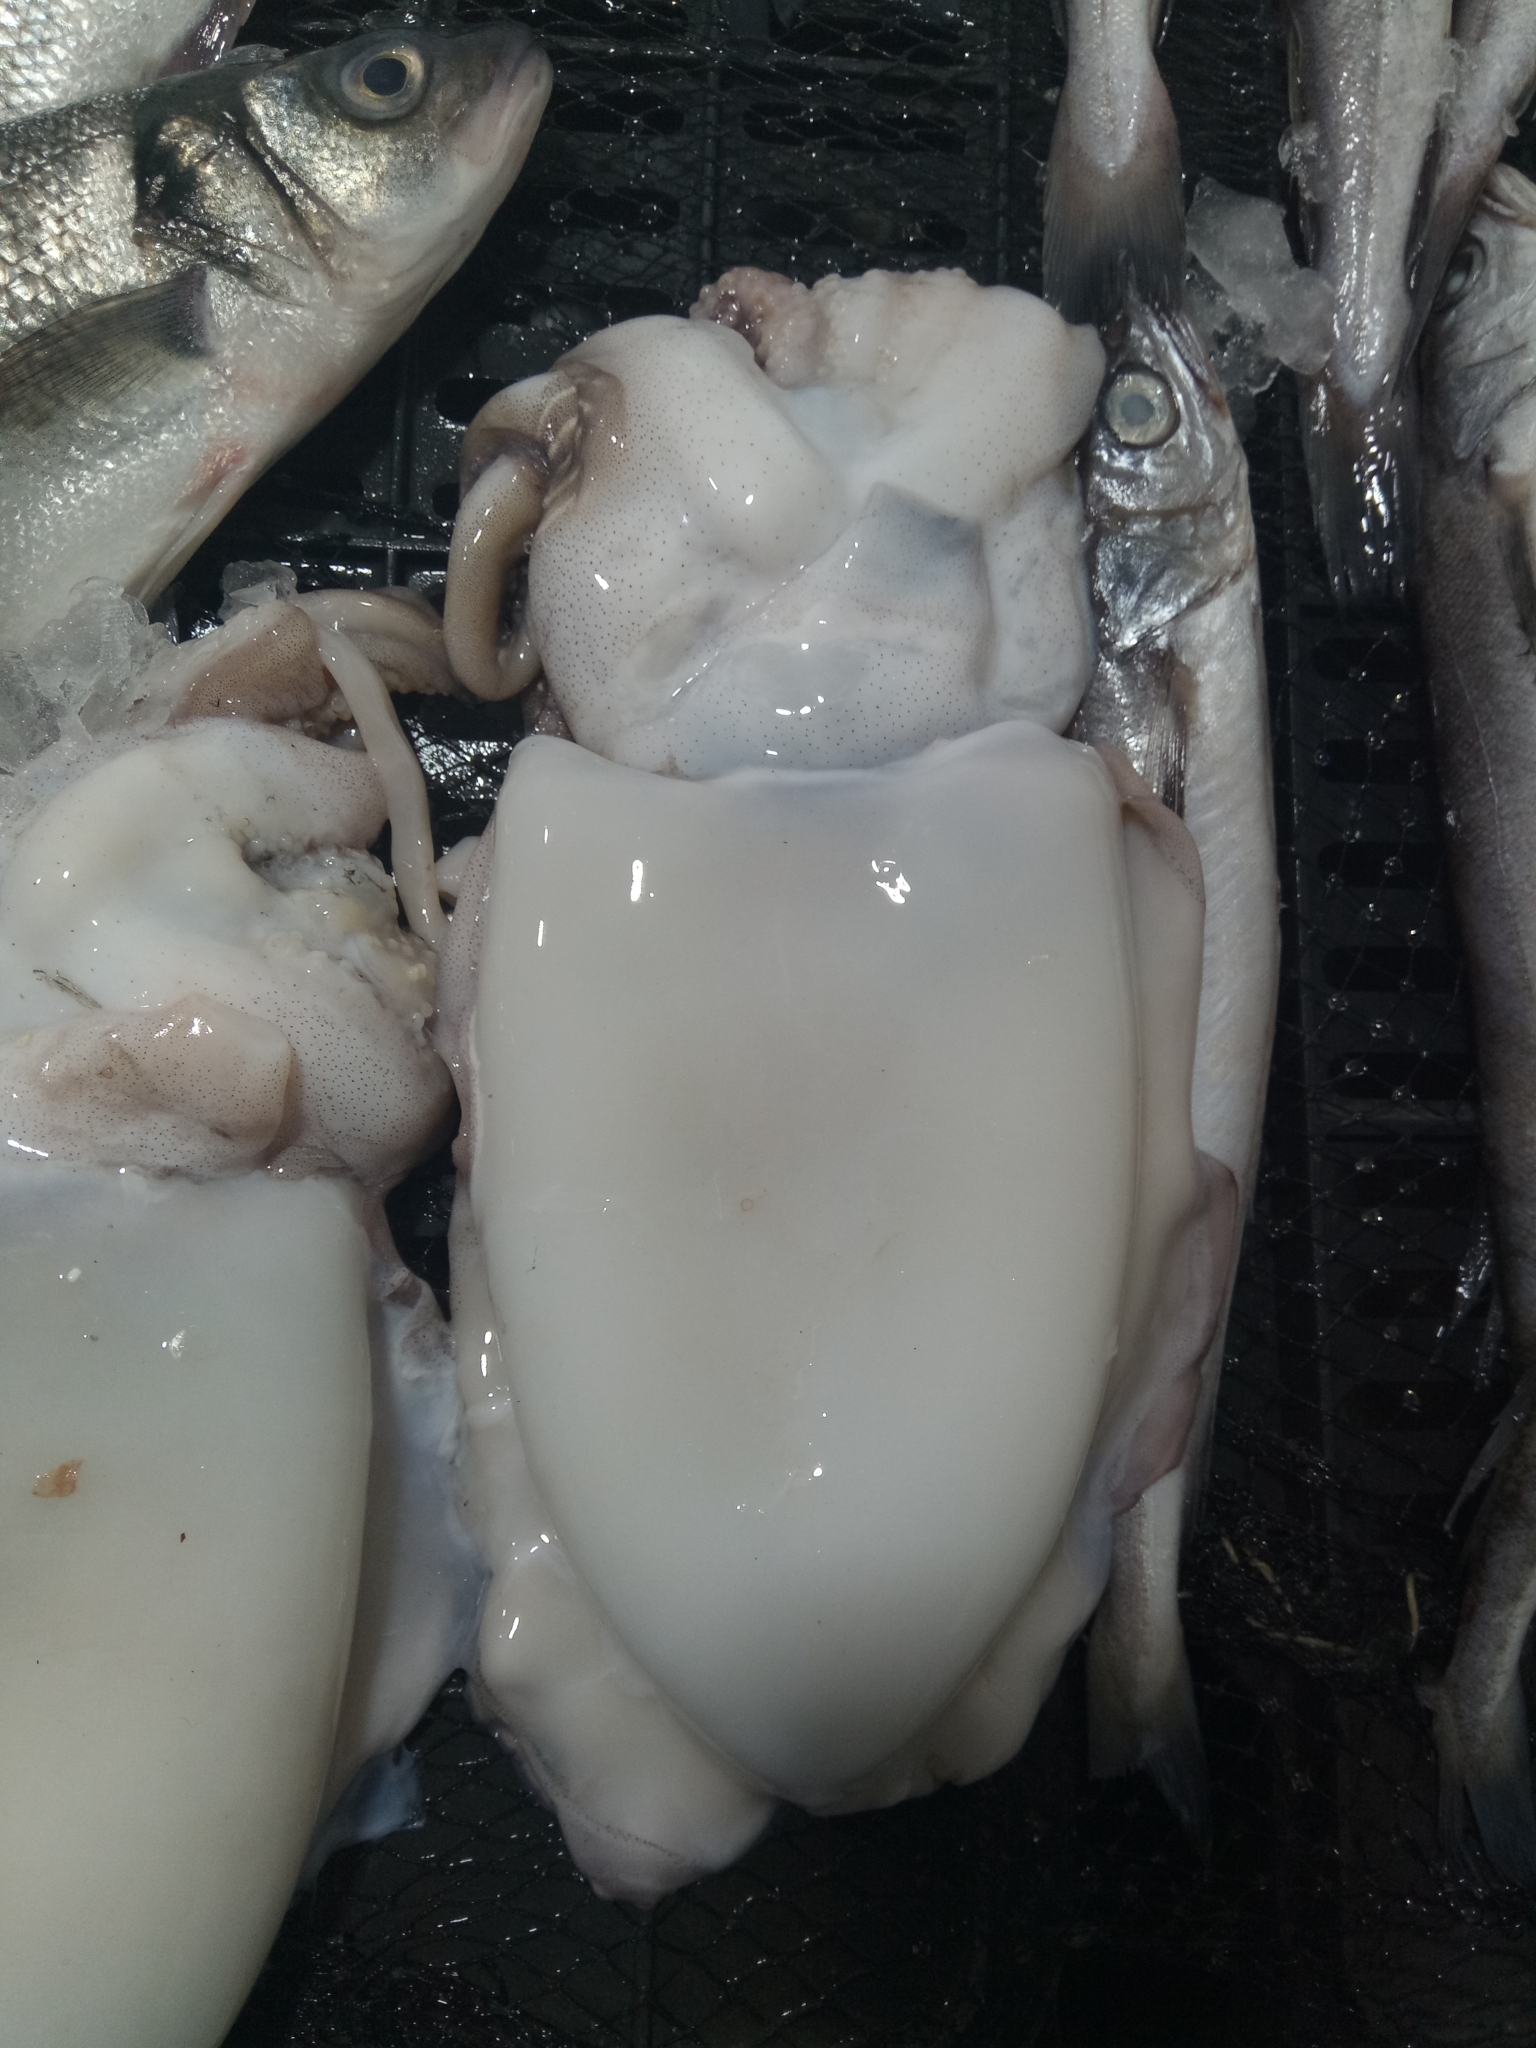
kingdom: Animalia
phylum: Mollusca
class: Cephalopoda
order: Sepiida
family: Sepiidae
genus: Sepia
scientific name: Sepia officinalis
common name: Common cuttlefish
